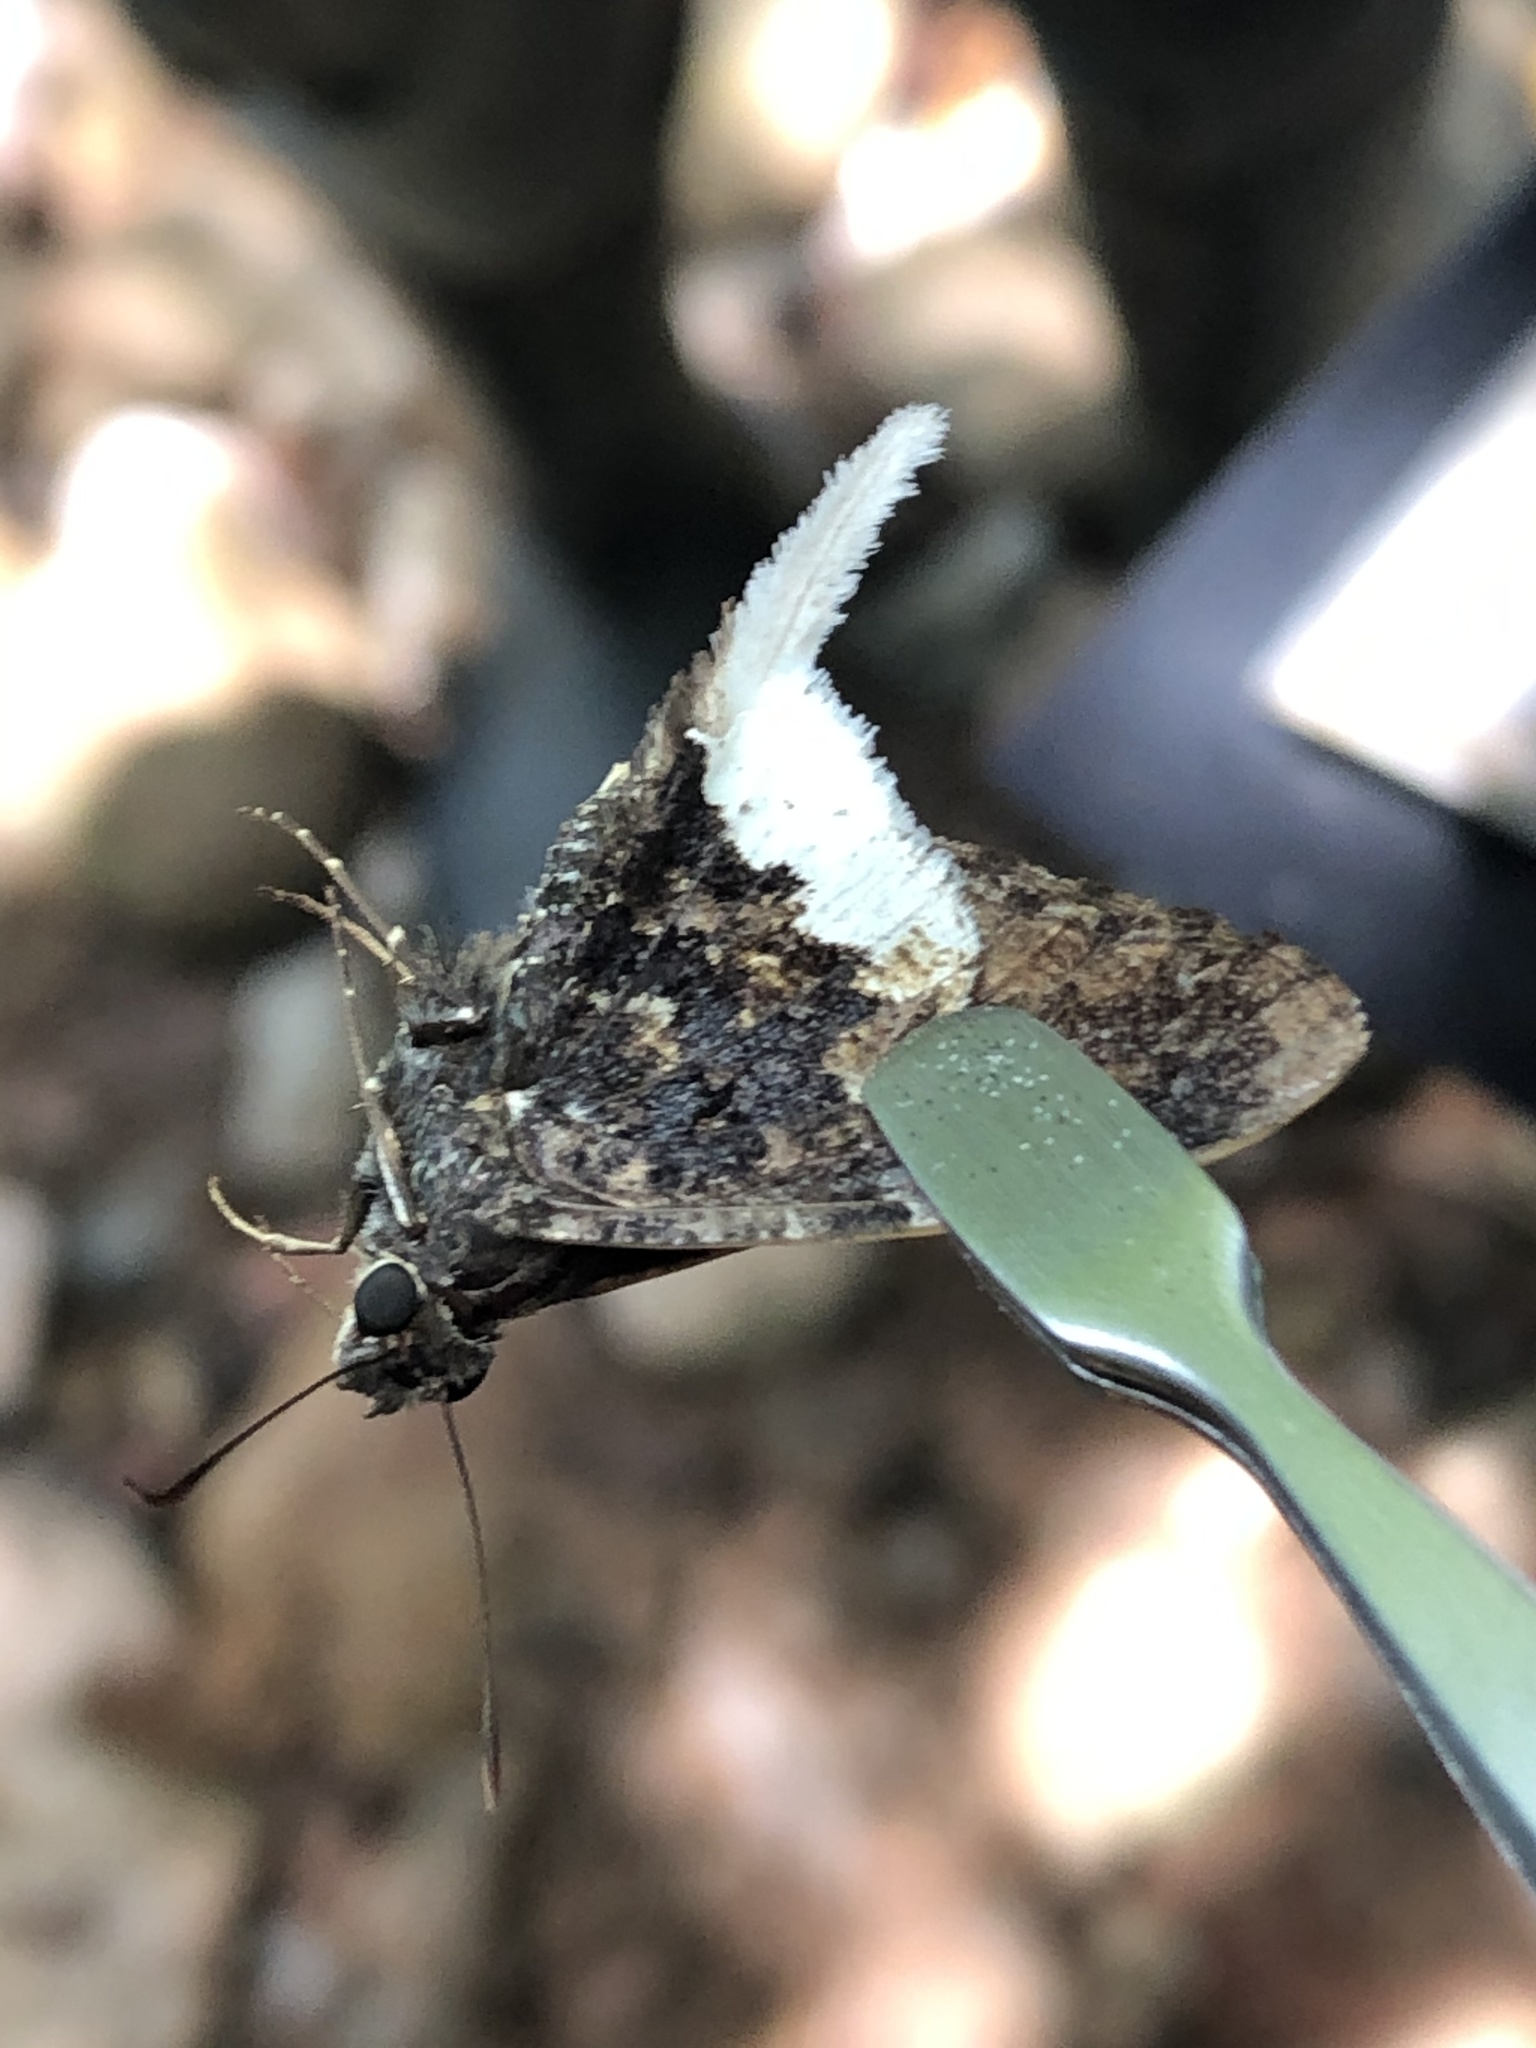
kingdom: Animalia
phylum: Arthropoda
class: Insecta
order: Lepidoptera
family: Hesperiidae
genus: Typhedanus
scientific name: Typhedanus crameri
